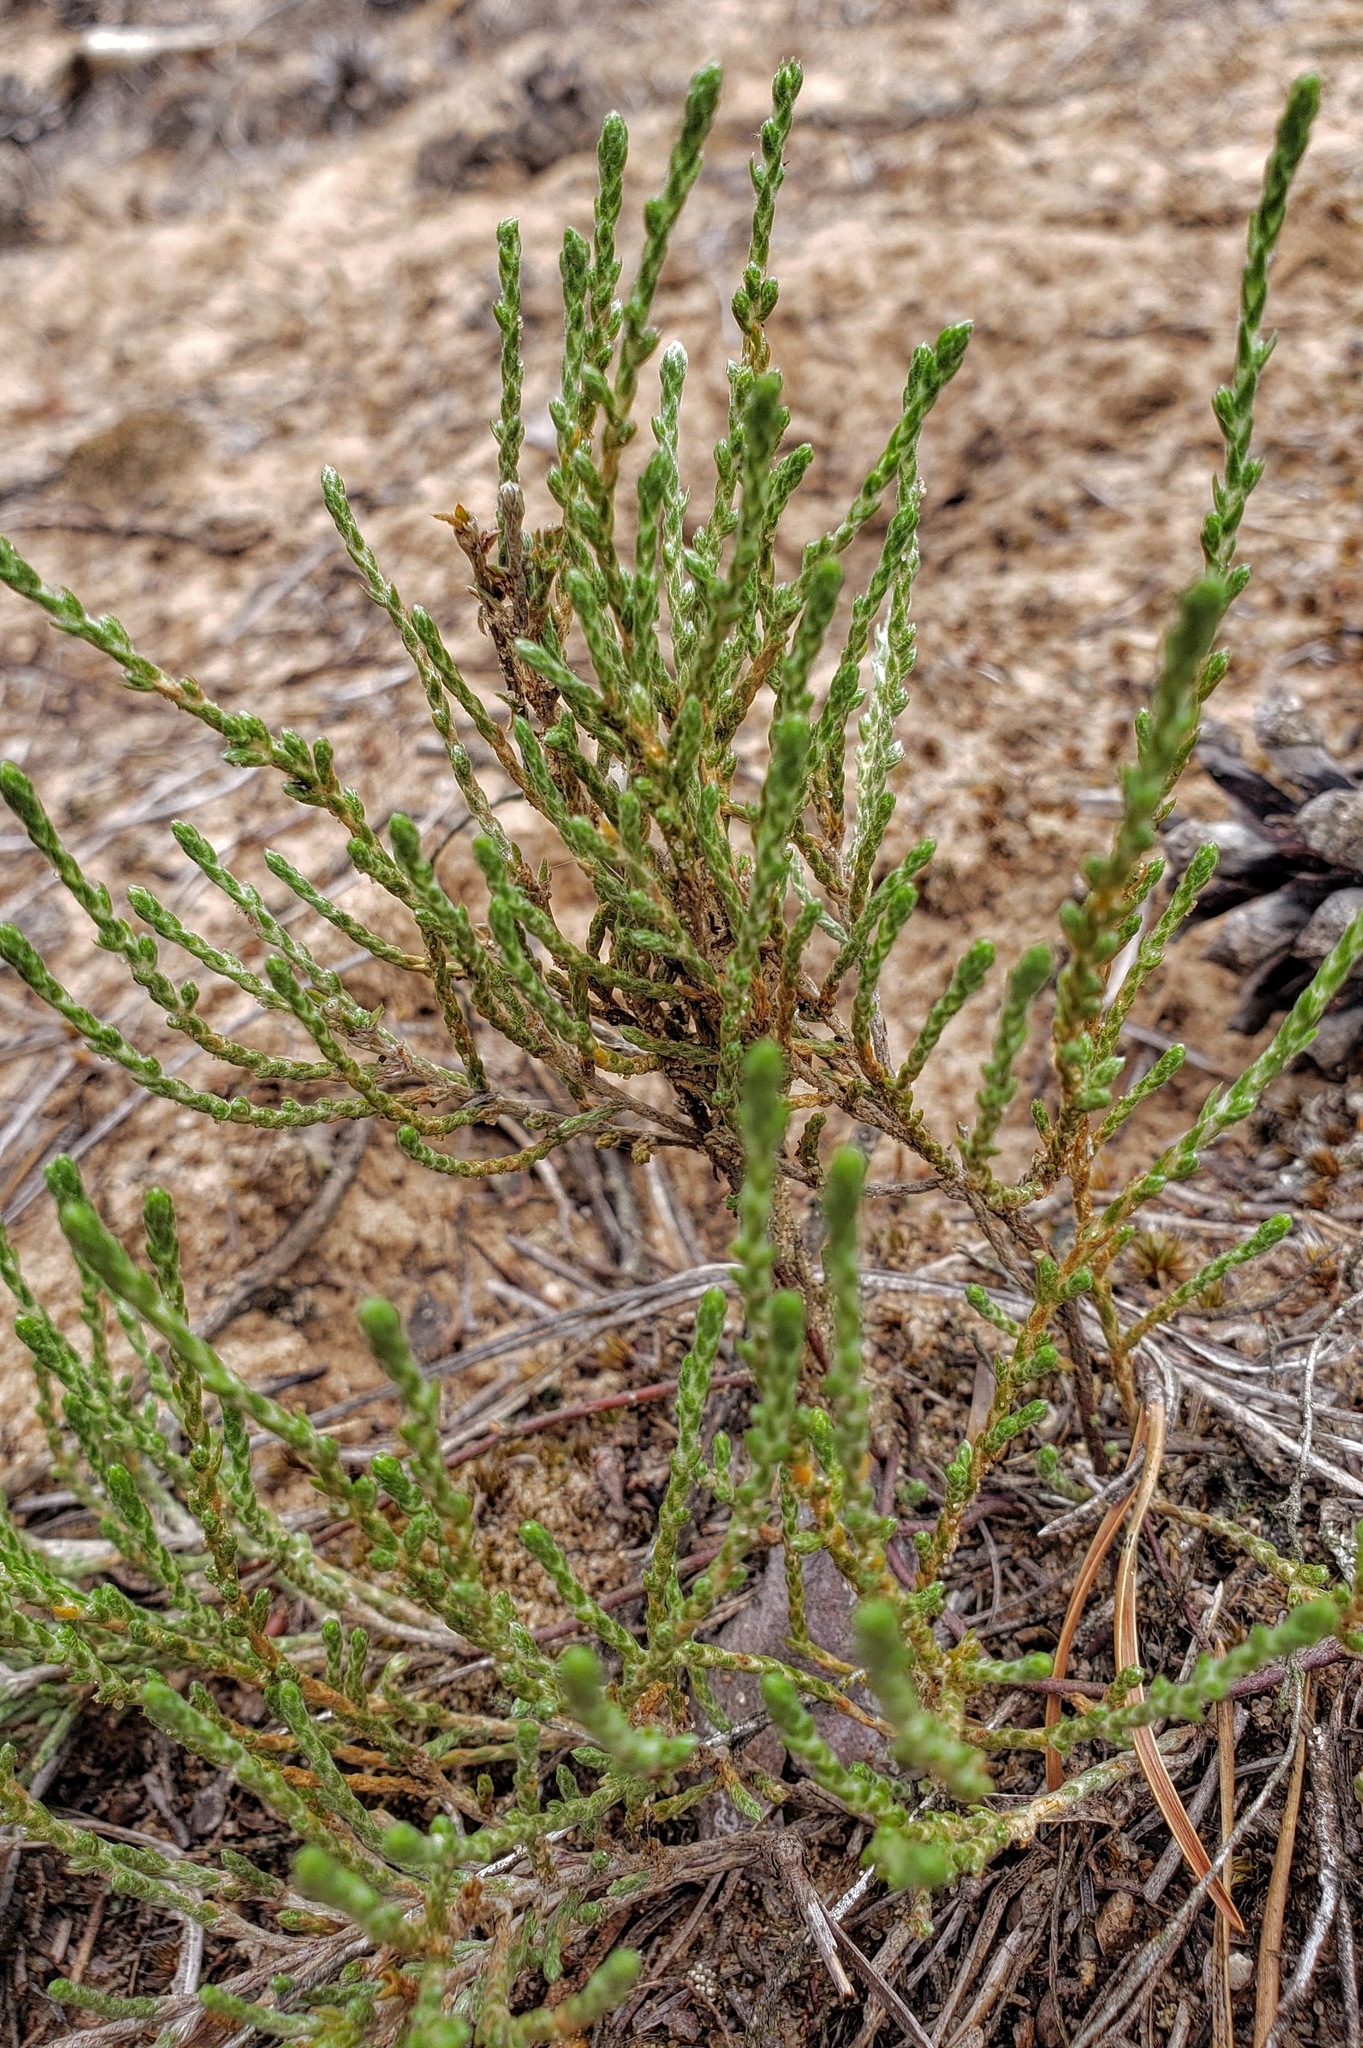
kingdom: Plantae
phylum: Tracheophyta
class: Magnoliopsida
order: Malvales
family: Cistaceae
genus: Hudsonia
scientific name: Hudsonia tomentosa
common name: Beach-heath
